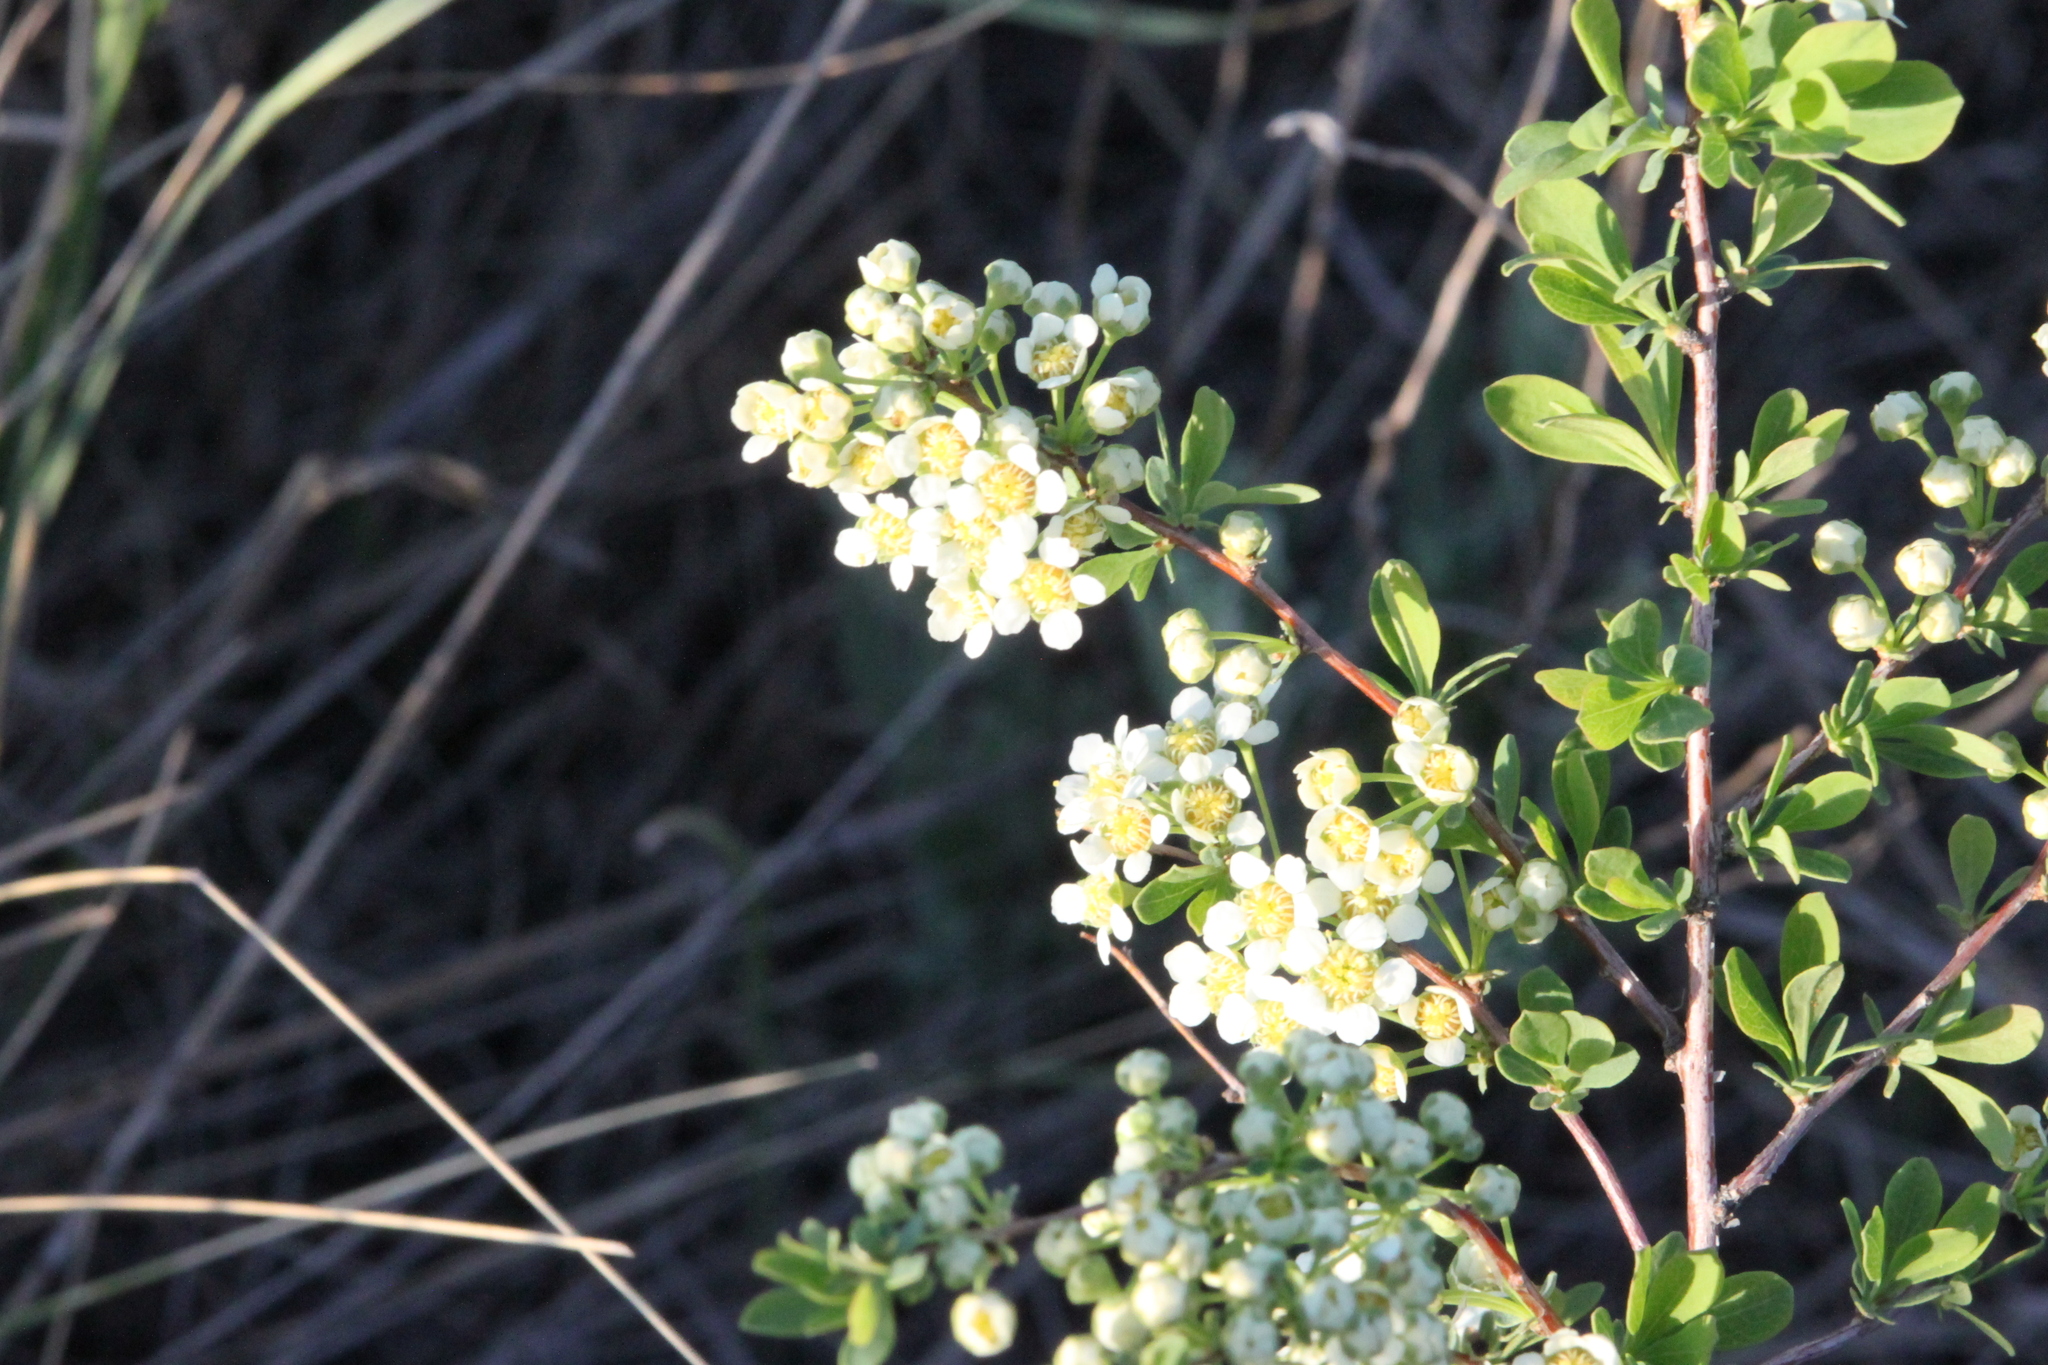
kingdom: Plantae
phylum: Tracheophyta
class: Magnoliopsida
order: Rosales
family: Rosaceae
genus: Spiraea
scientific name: Spiraea hypericifolia
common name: Iberian spirea
